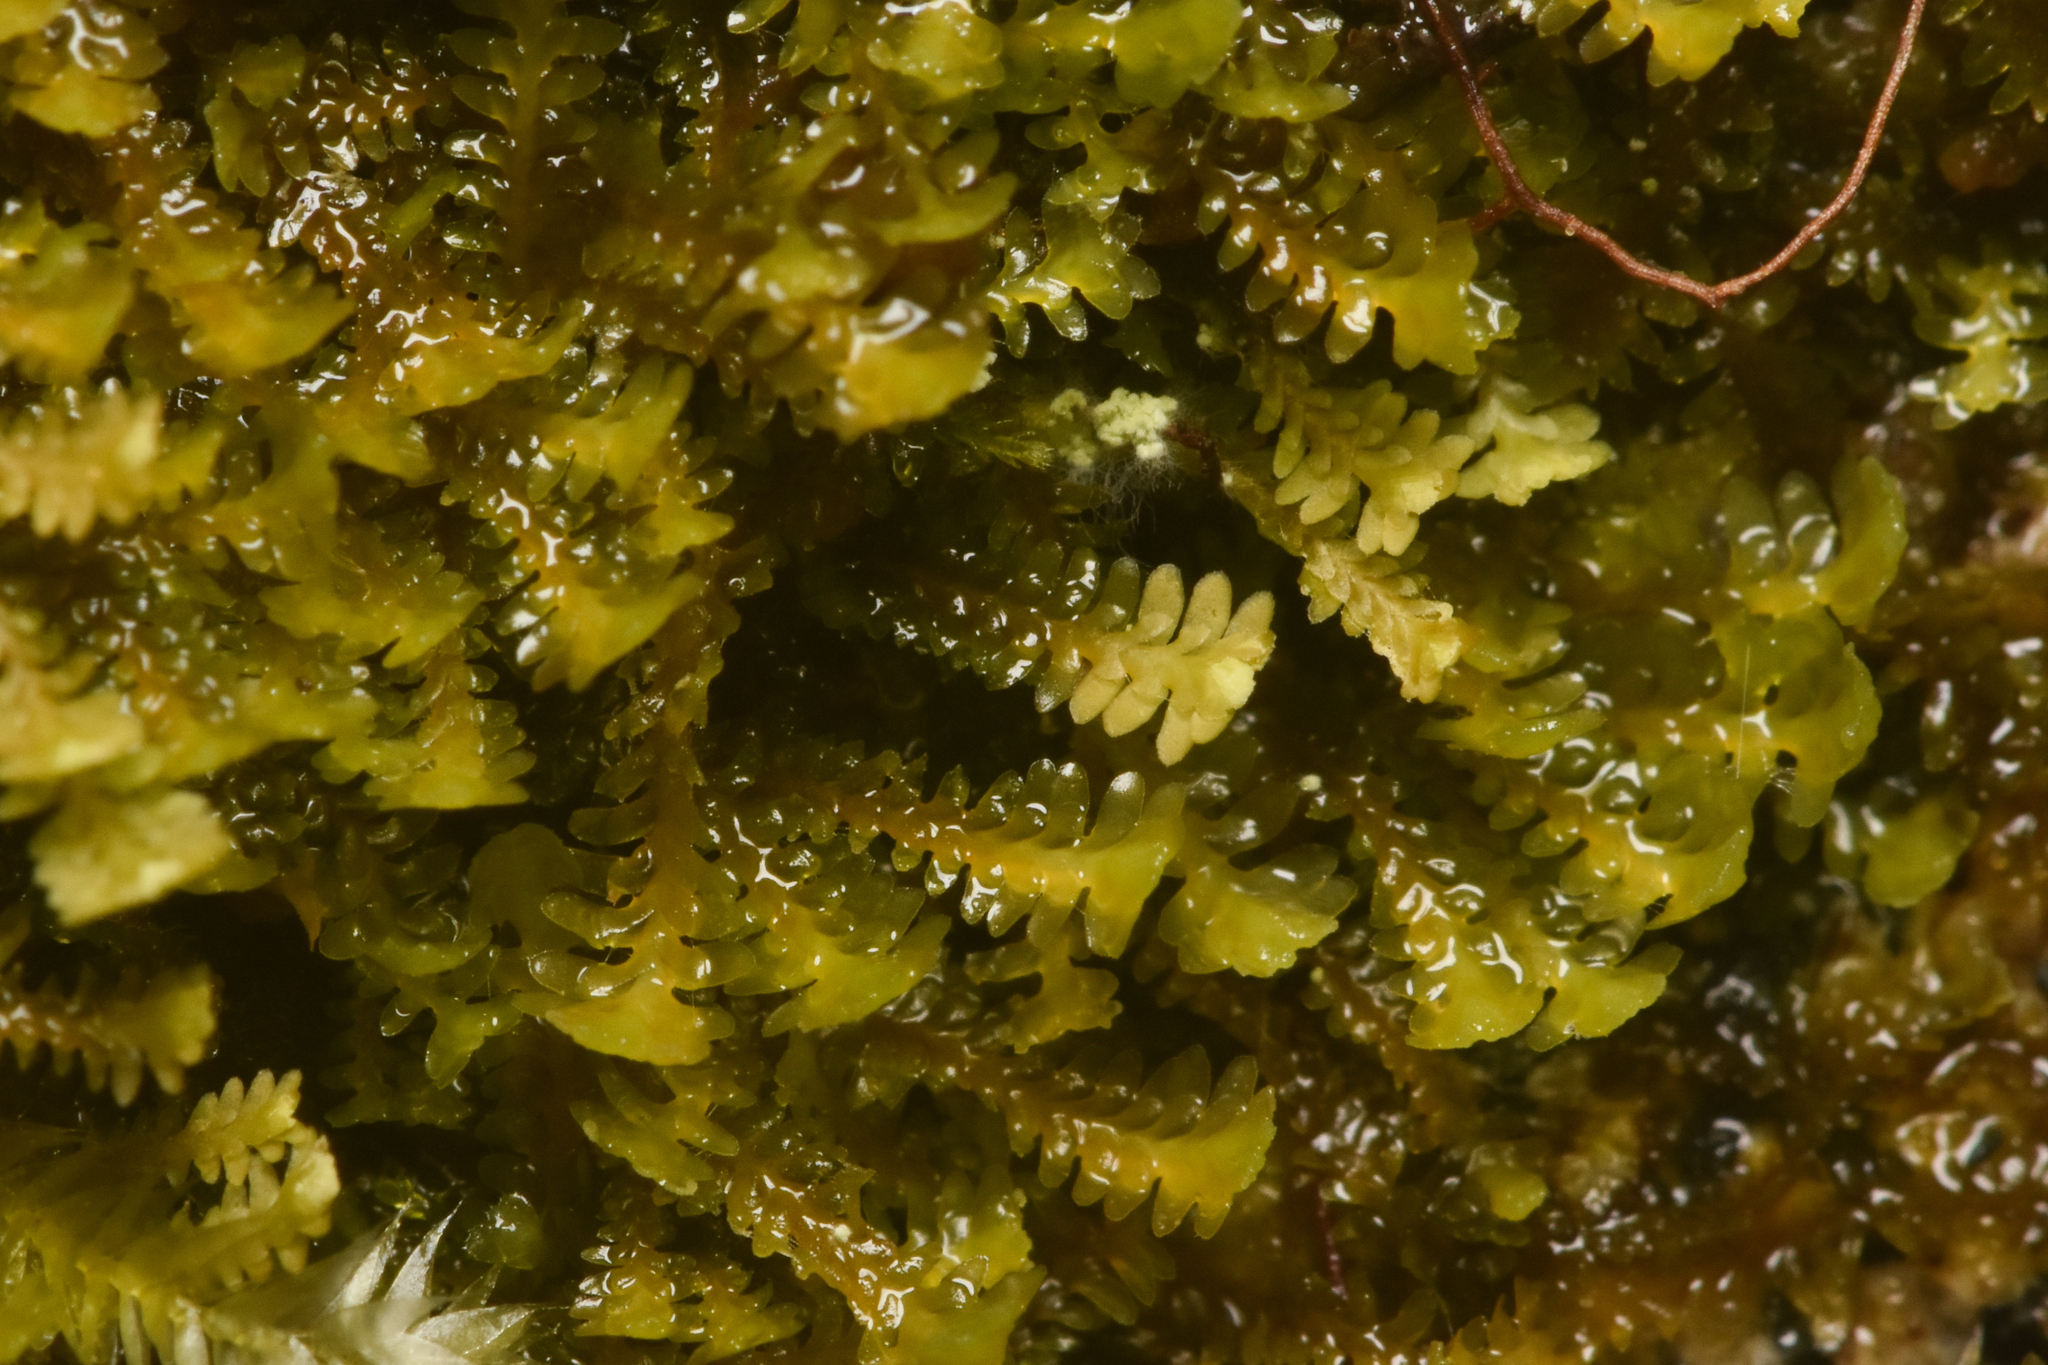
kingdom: Plantae
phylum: Marchantiophyta
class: Jungermanniopsida
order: Jungermanniales
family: Scapaniaceae
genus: Diplophyllum
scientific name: Diplophyllum albicans
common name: White earwort
